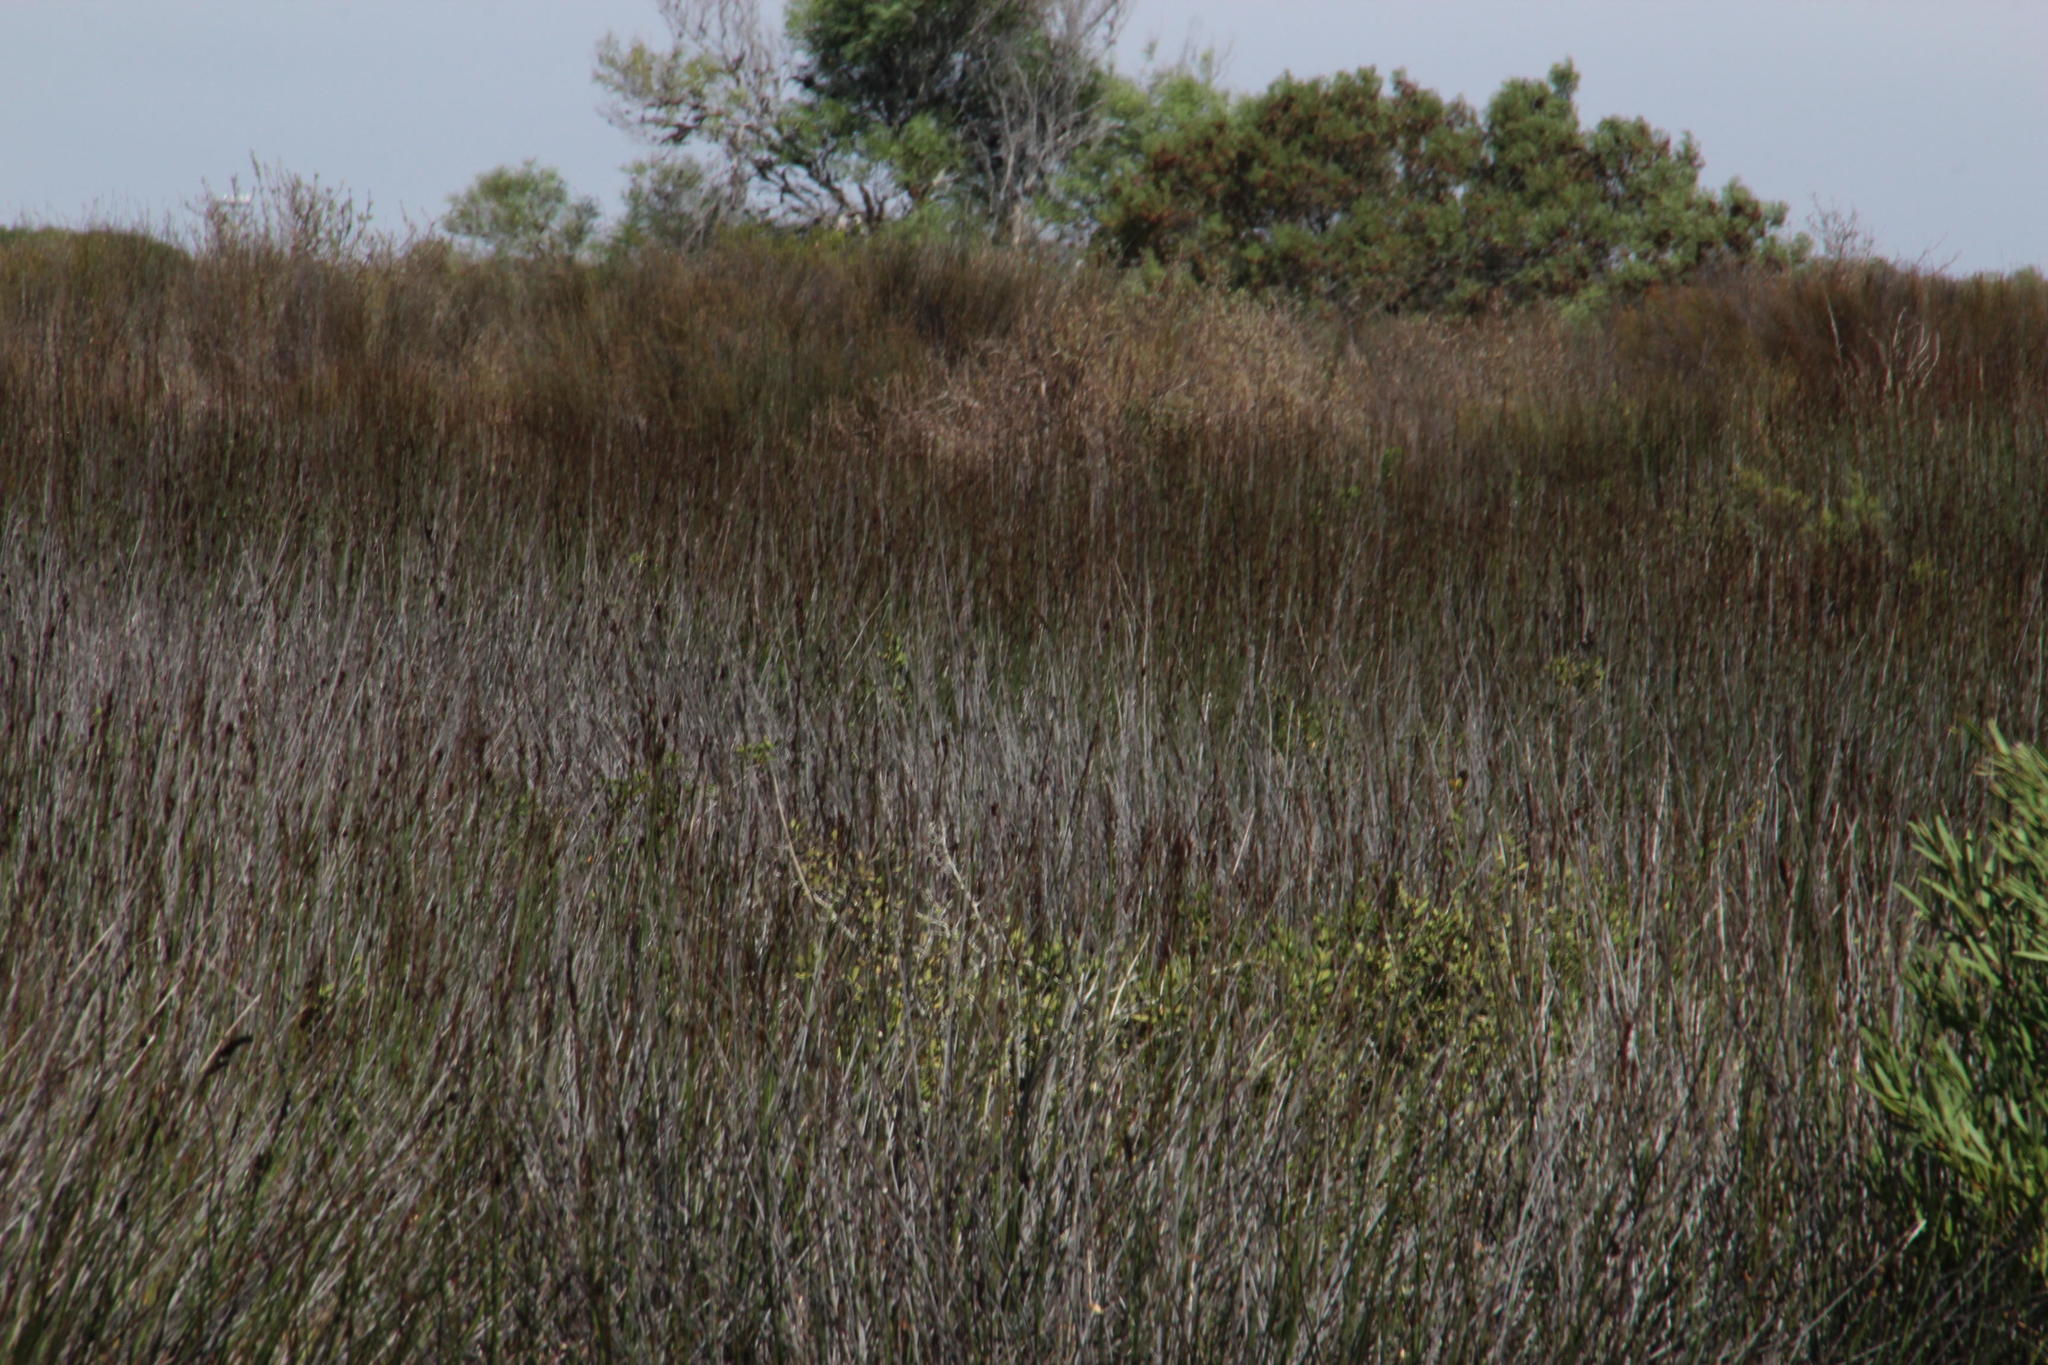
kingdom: Plantae
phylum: Tracheophyta
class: Liliopsida
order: Poales
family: Restionaceae
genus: Elegia
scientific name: Elegia elephantina
